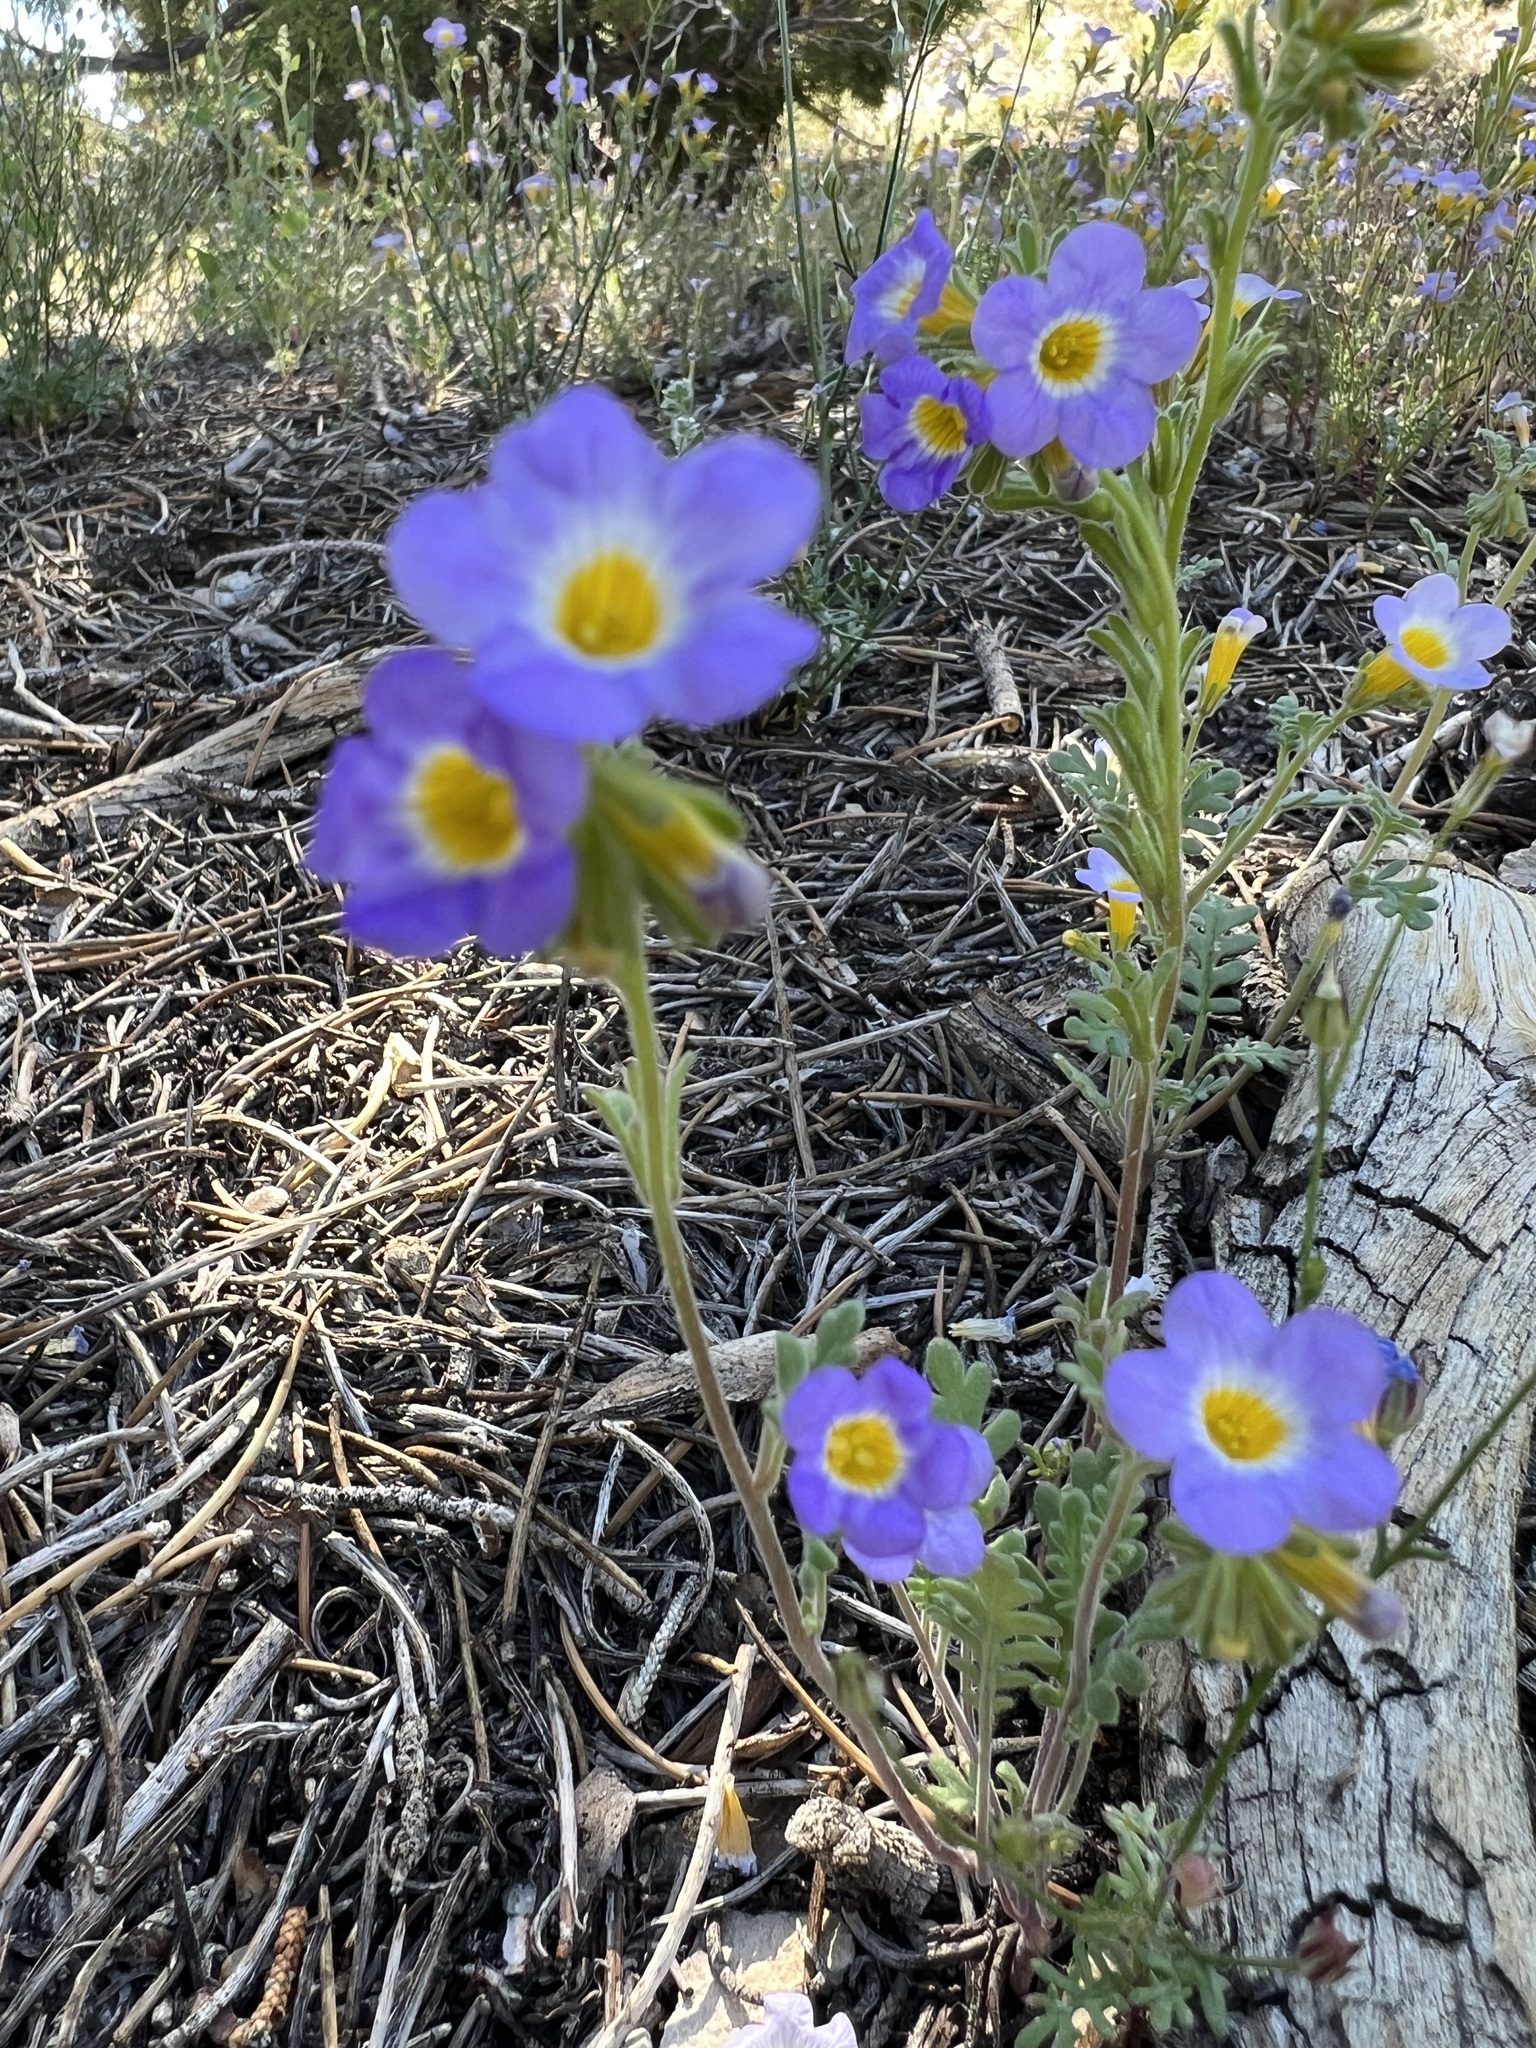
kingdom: Plantae
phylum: Tracheophyta
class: Magnoliopsida
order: Boraginales
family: Hydrophyllaceae
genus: Phacelia
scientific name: Phacelia fremontii
